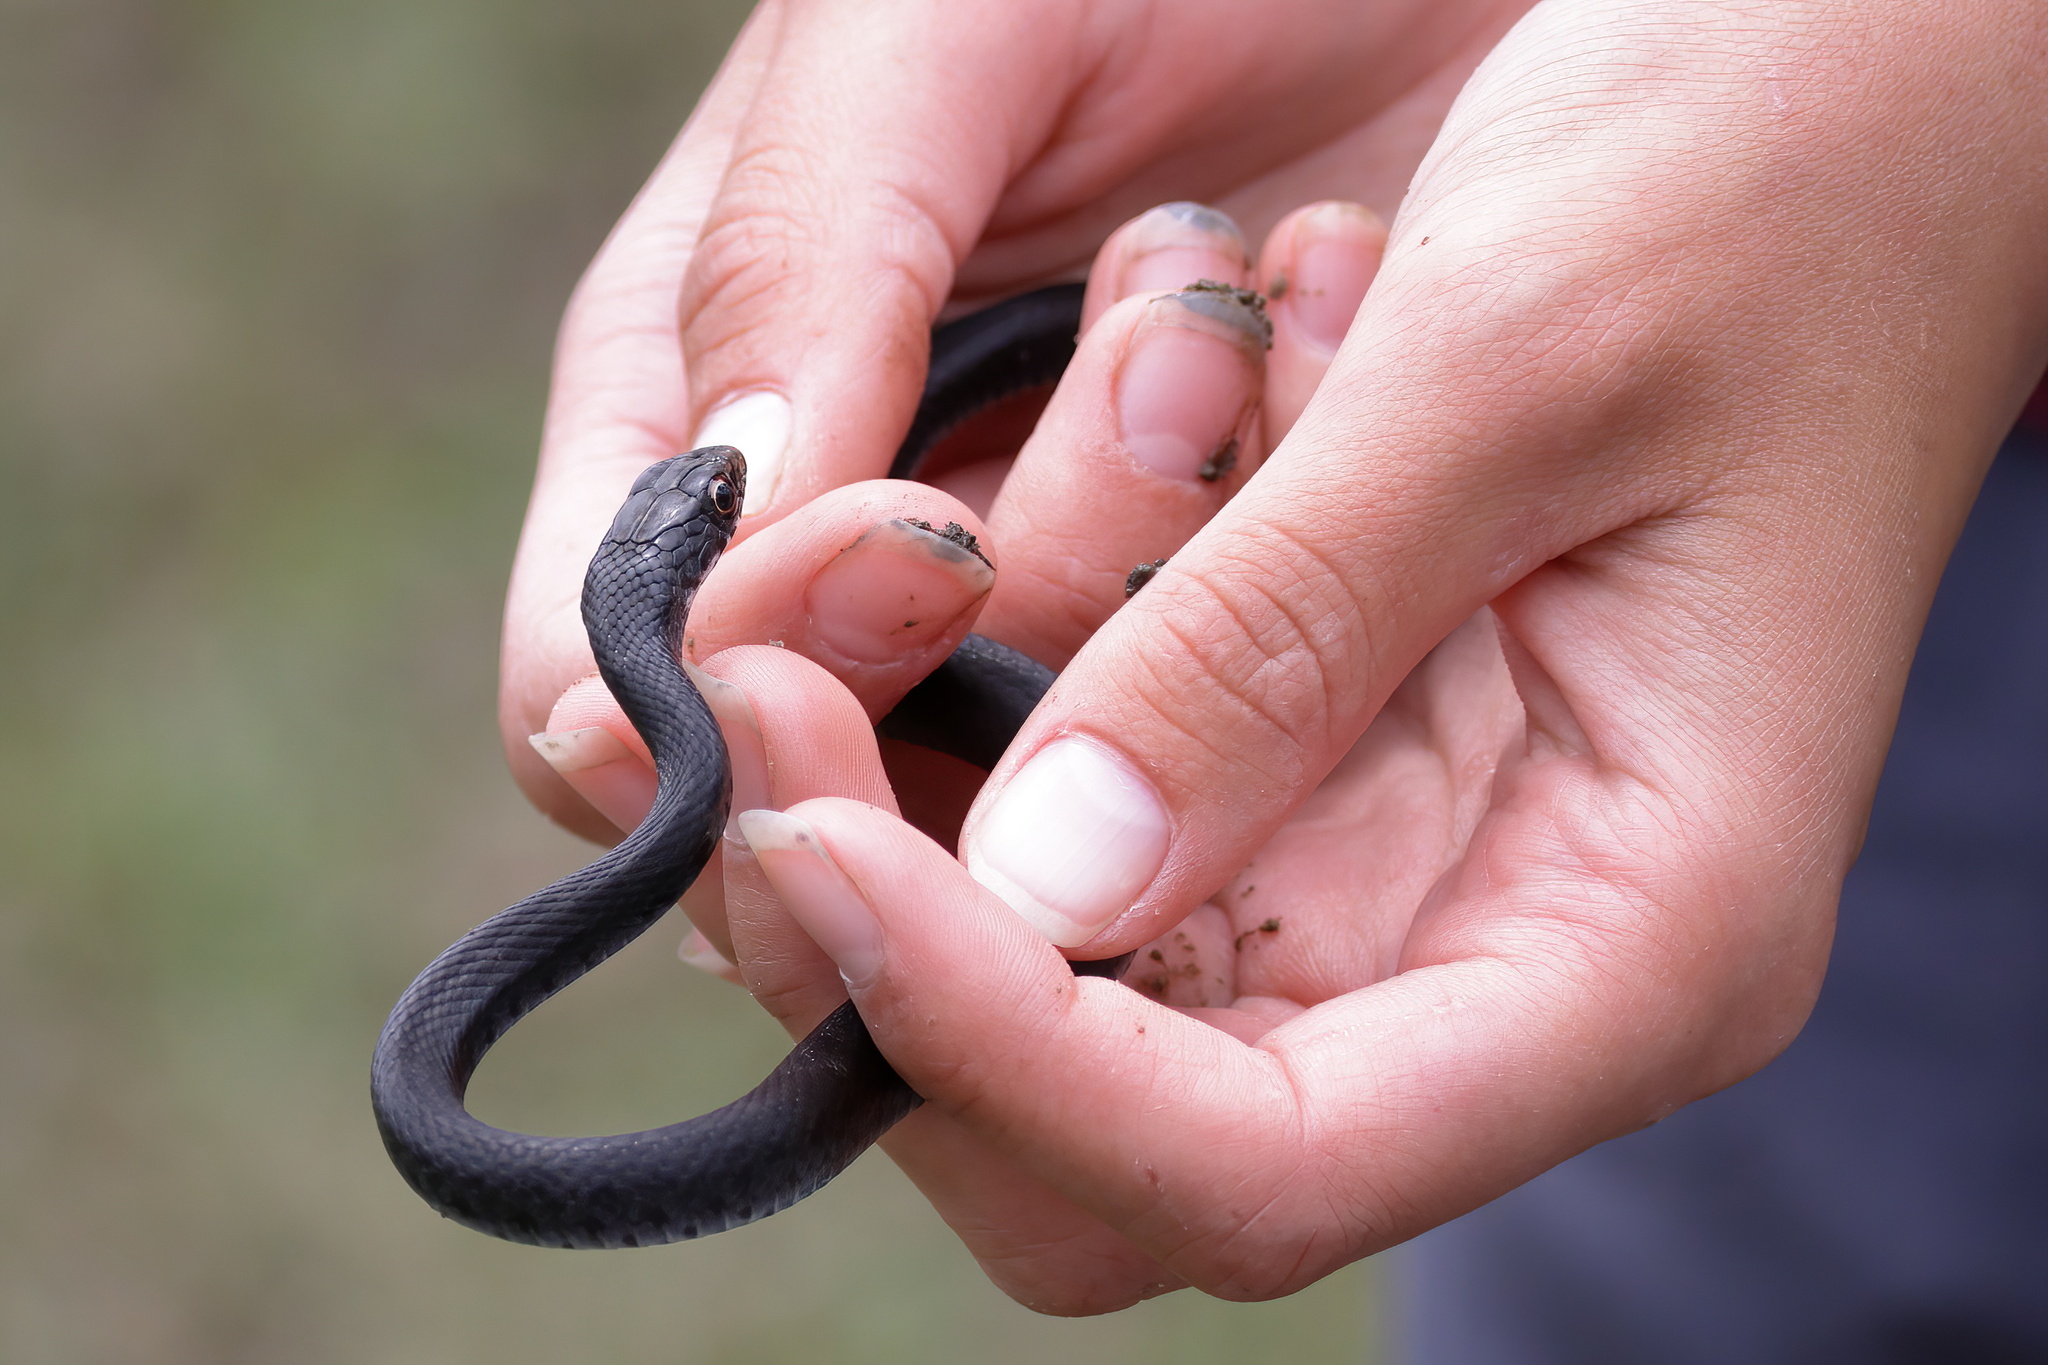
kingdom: Animalia
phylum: Chordata
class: Squamata
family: Colubridae
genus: Coluber
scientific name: Coluber constrictor
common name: Eastern racer
